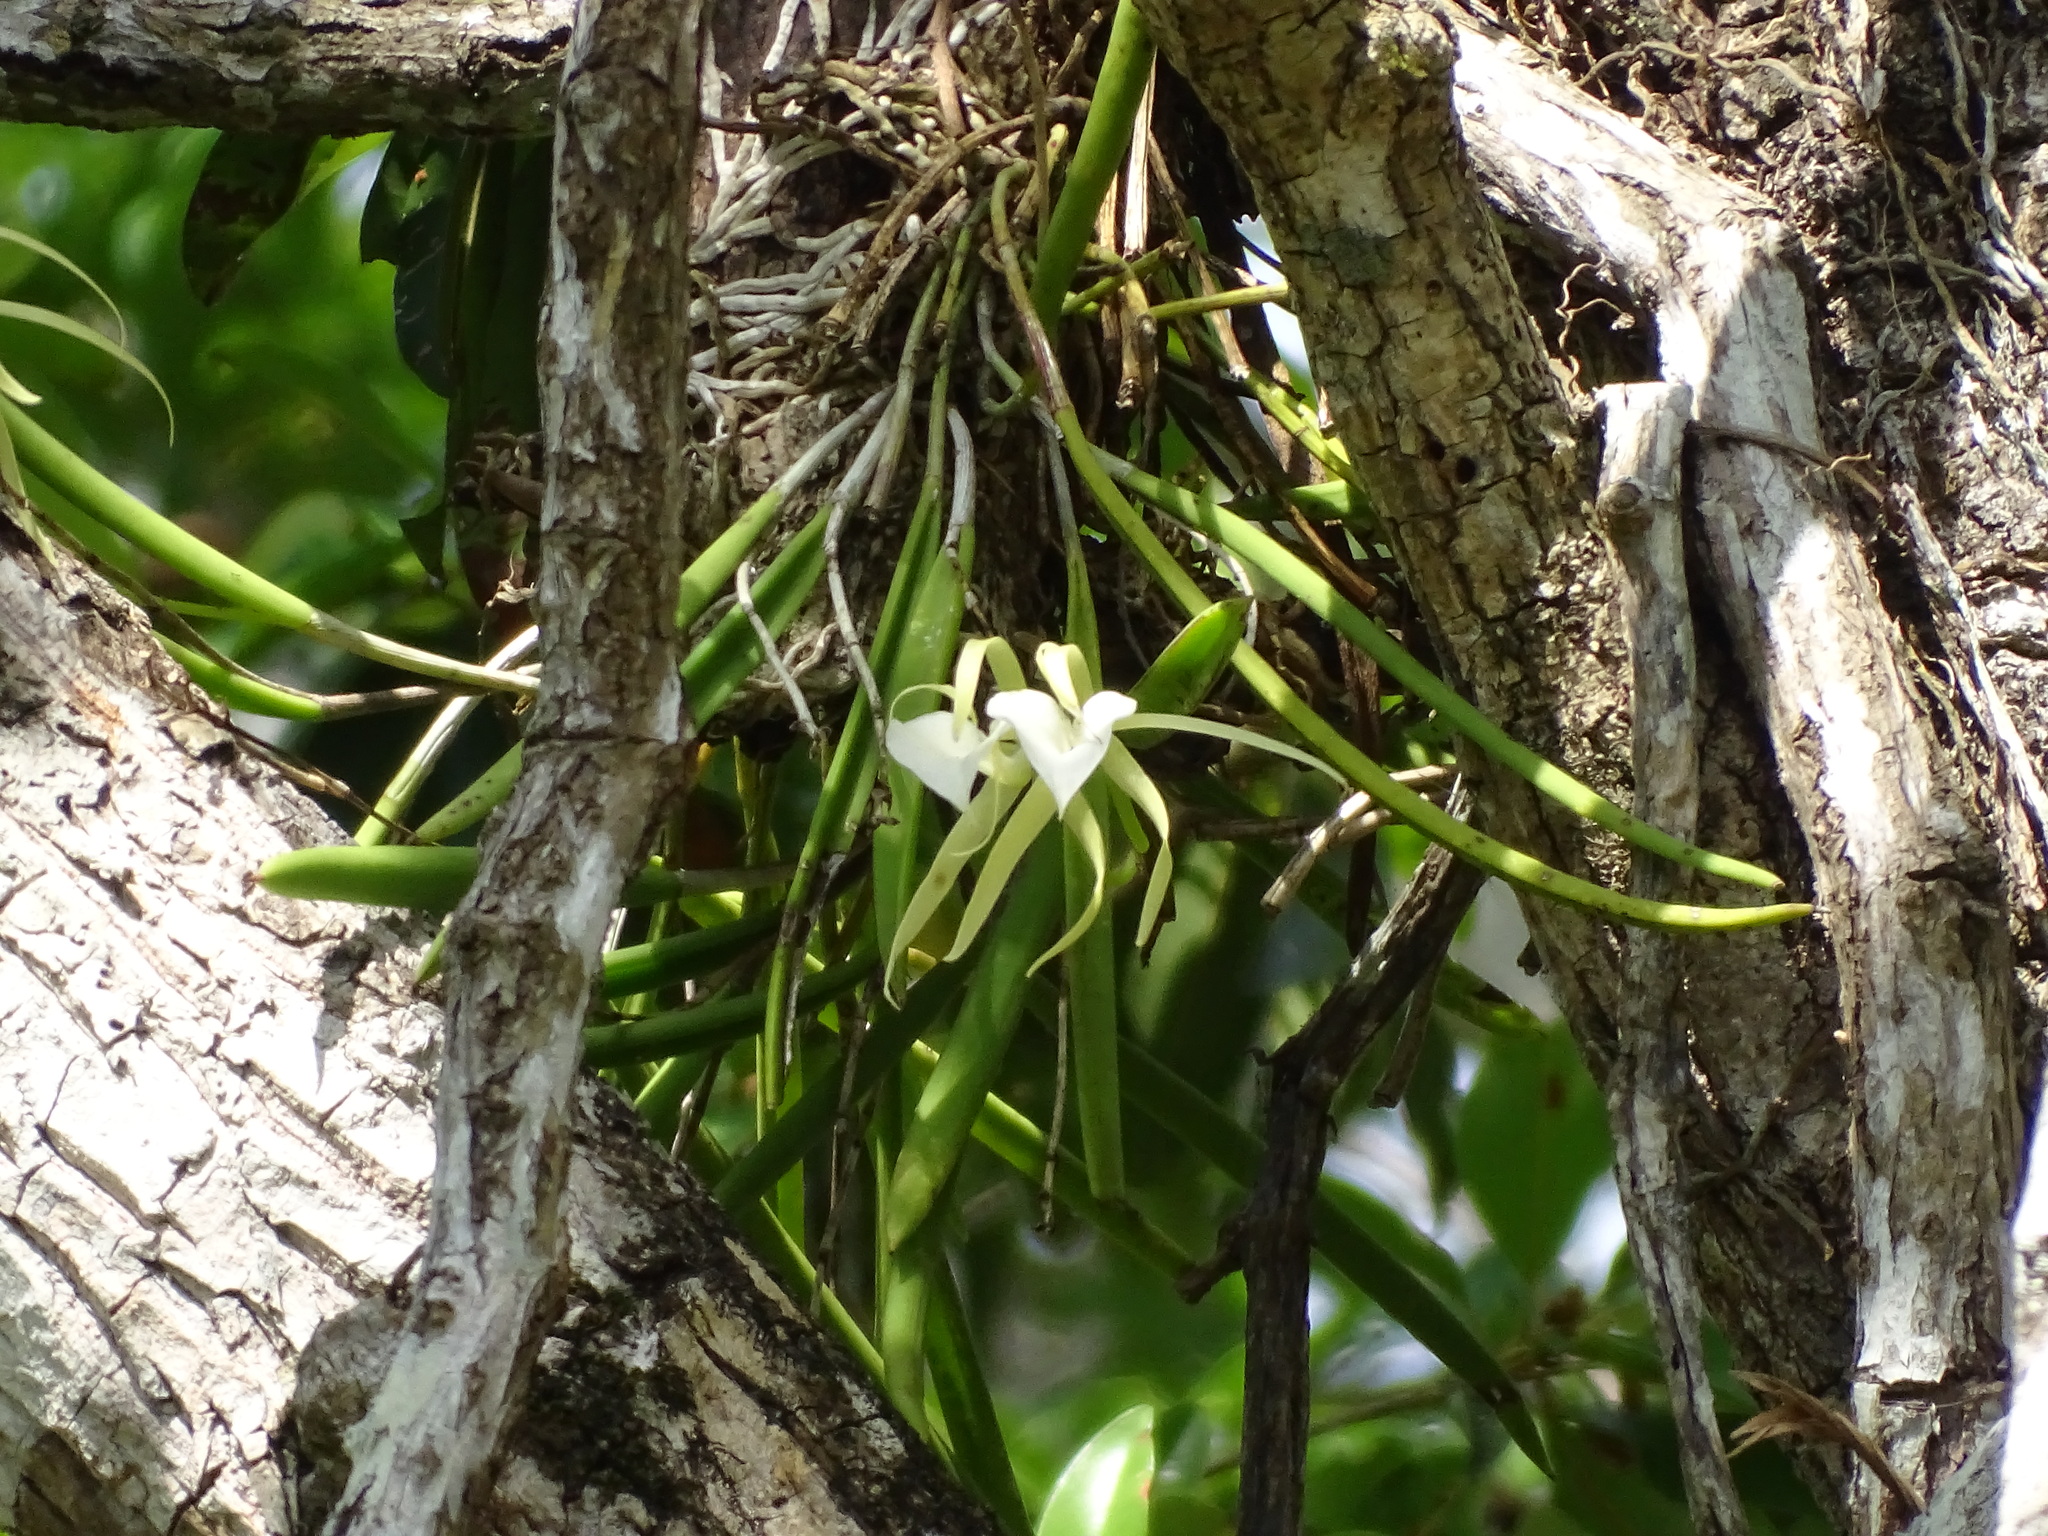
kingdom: Plantae
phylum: Tracheophyta
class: Liliopsida
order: Asparagales
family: Orchidaceae
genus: Brassavola
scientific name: Brassavola nodosa
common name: Lady of the night
